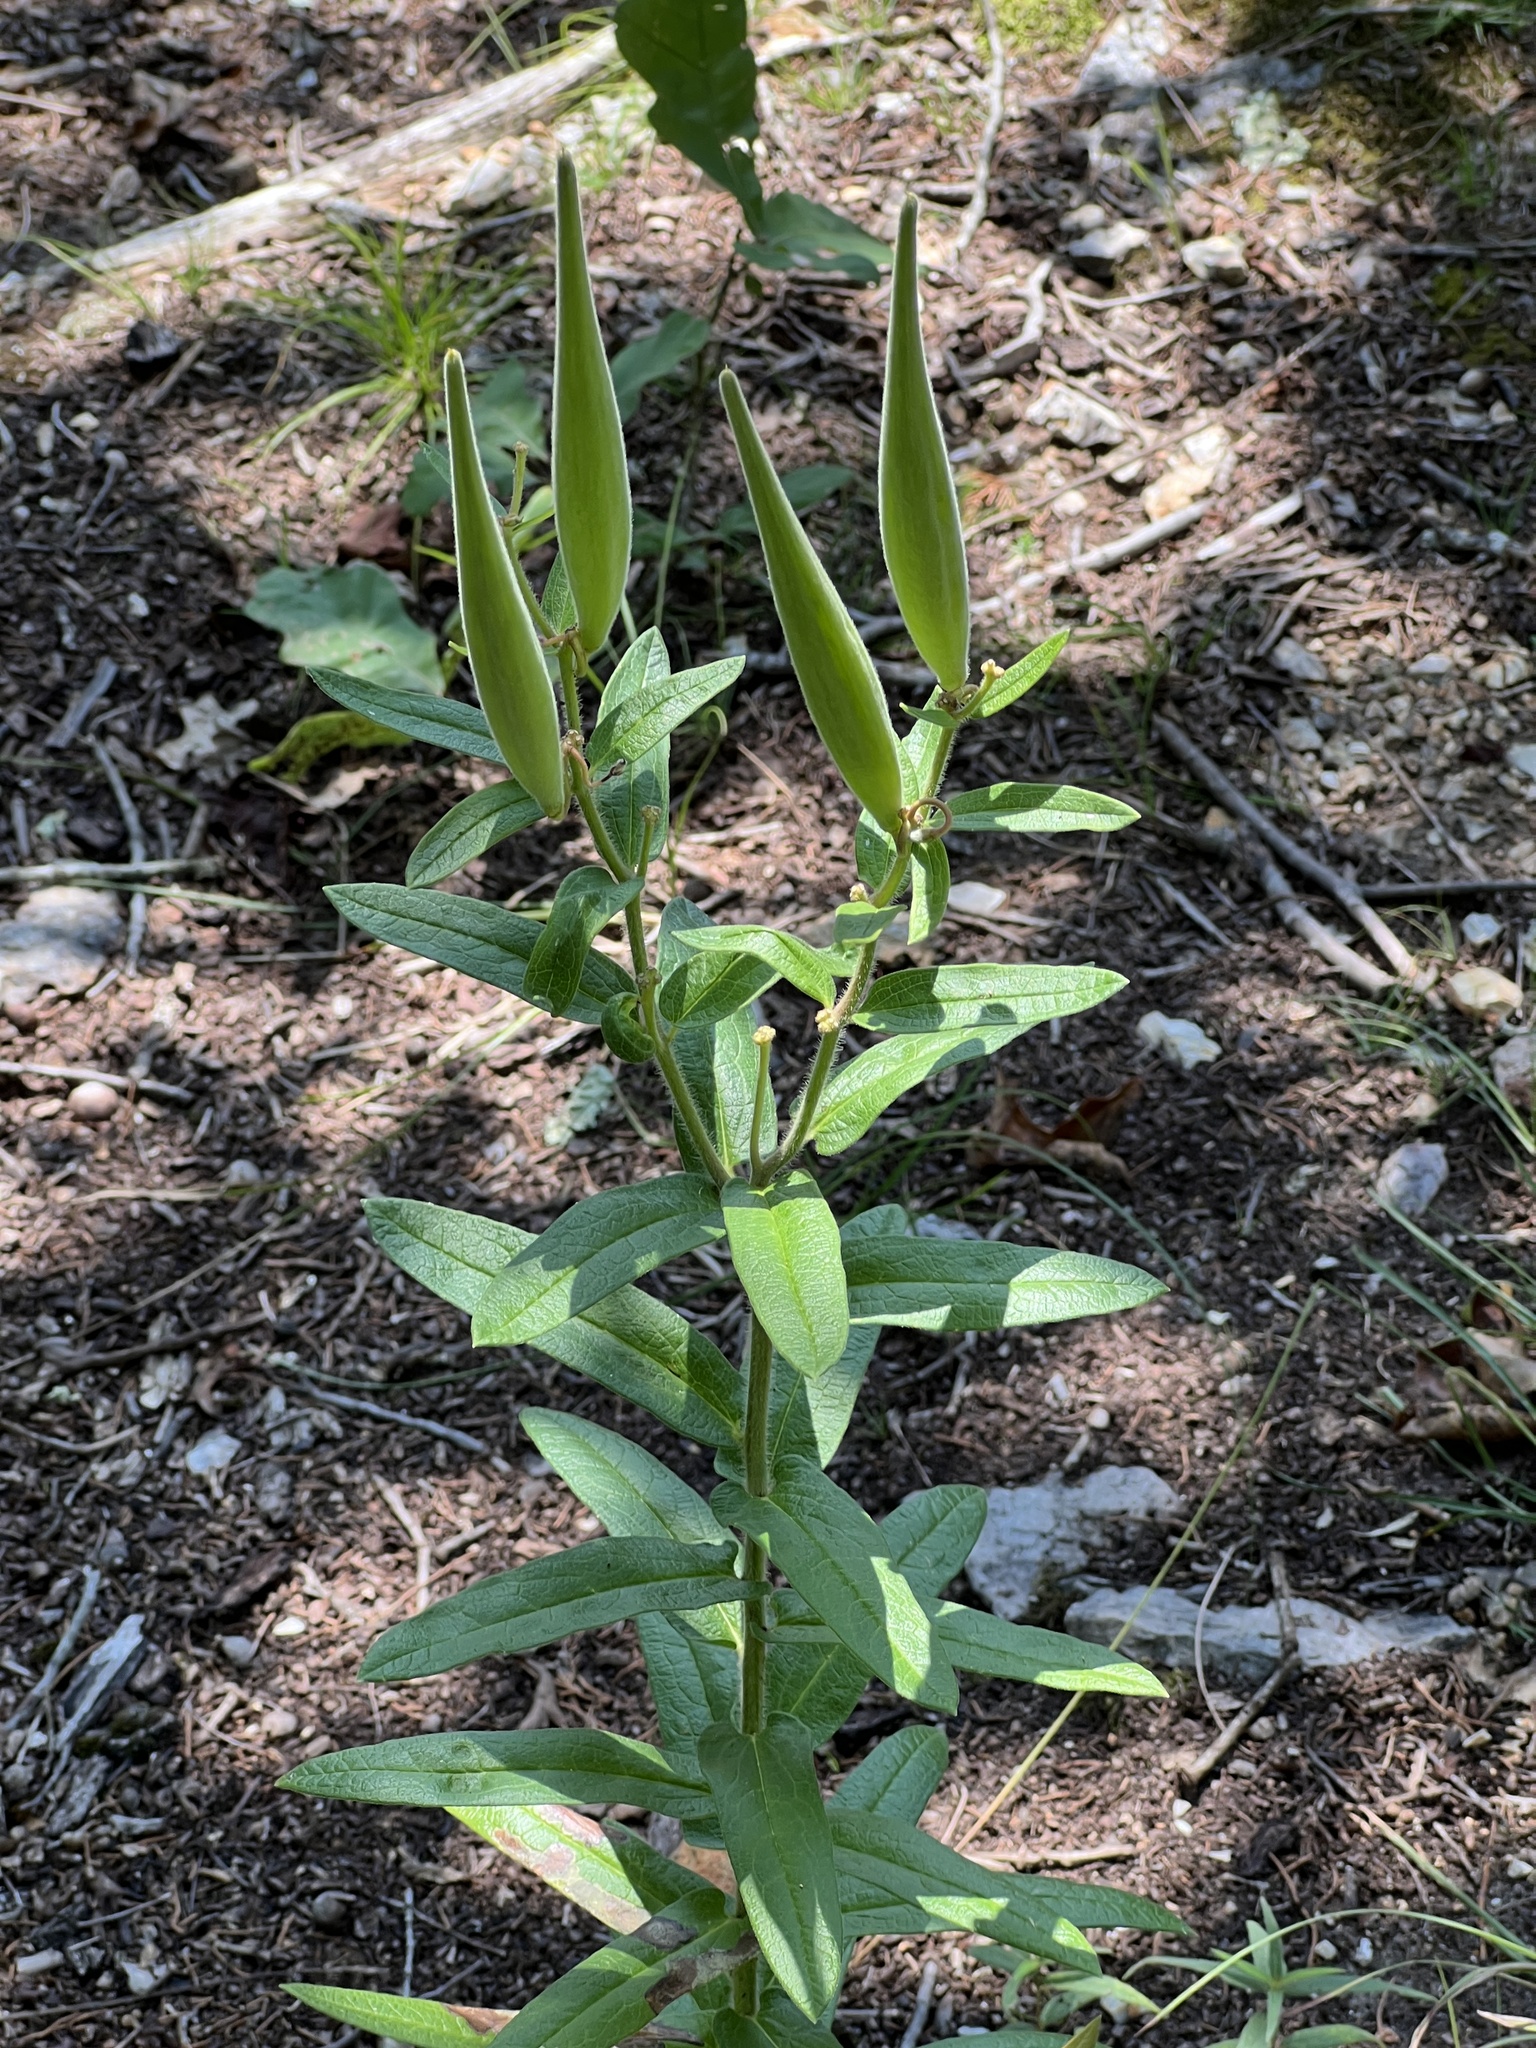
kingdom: Plantae
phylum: Tracheophyta
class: Magnoliopsida
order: Gentianales
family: Apocynaceae
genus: Asclepias
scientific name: Asclepias tuberosa
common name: Butterfly milkweed
